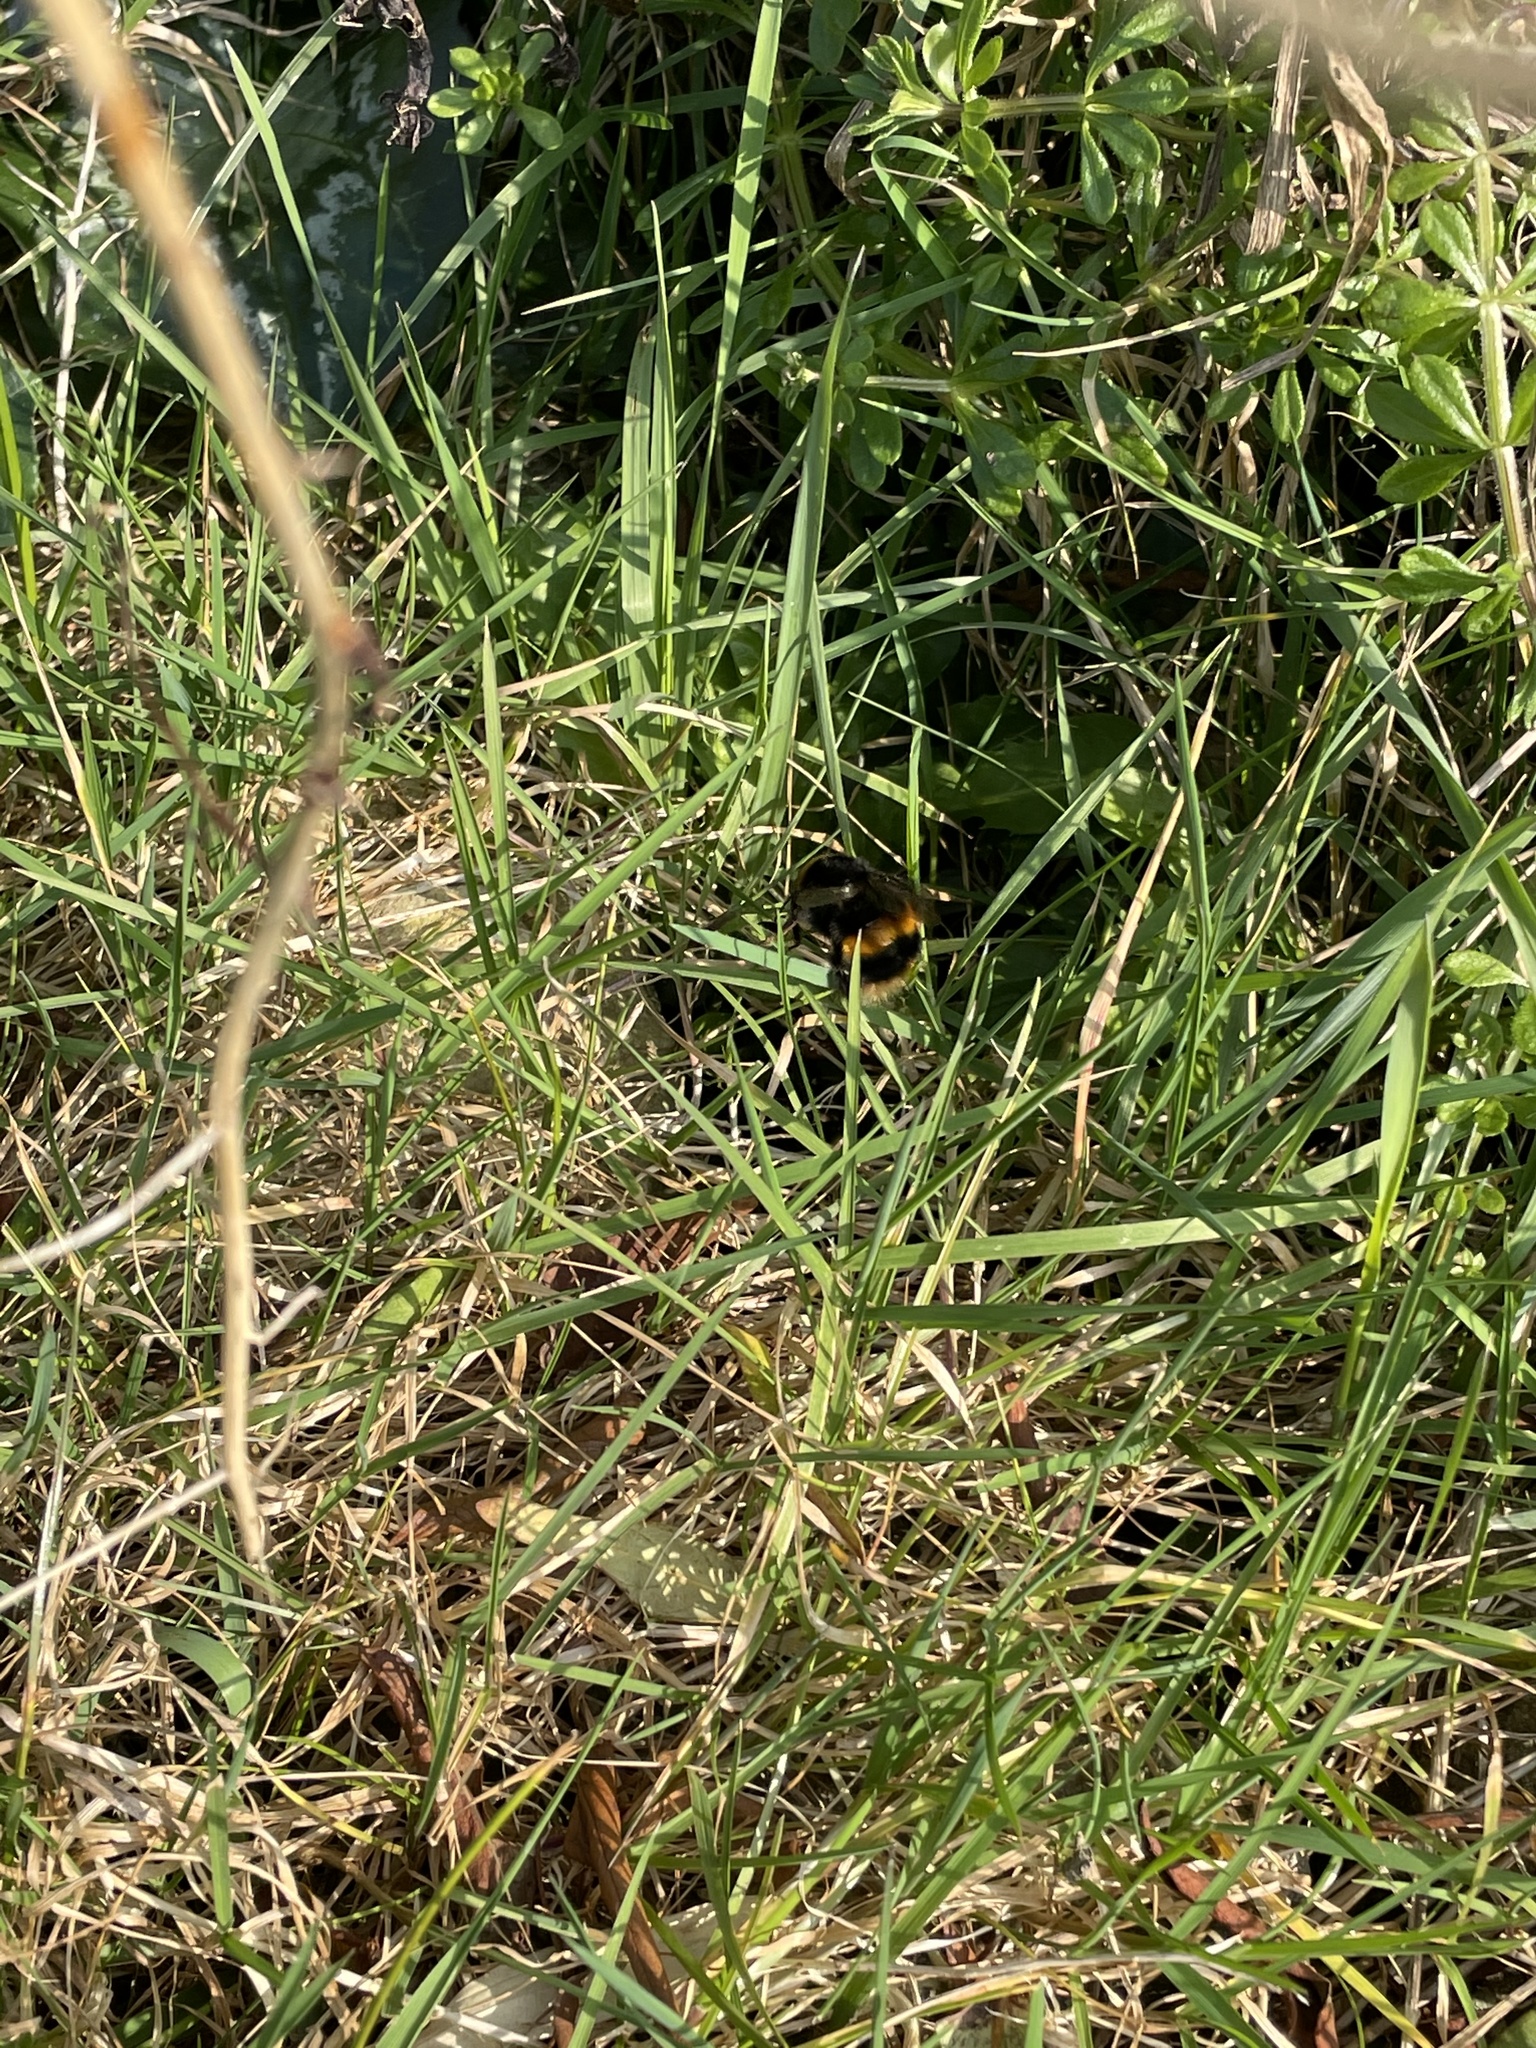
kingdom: Animalia
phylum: Arthropoda
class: Insecta
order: Hymenoptera
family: Apidae
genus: Bombus
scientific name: Bombus terrestris
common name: Buff-tailed bumblebee
